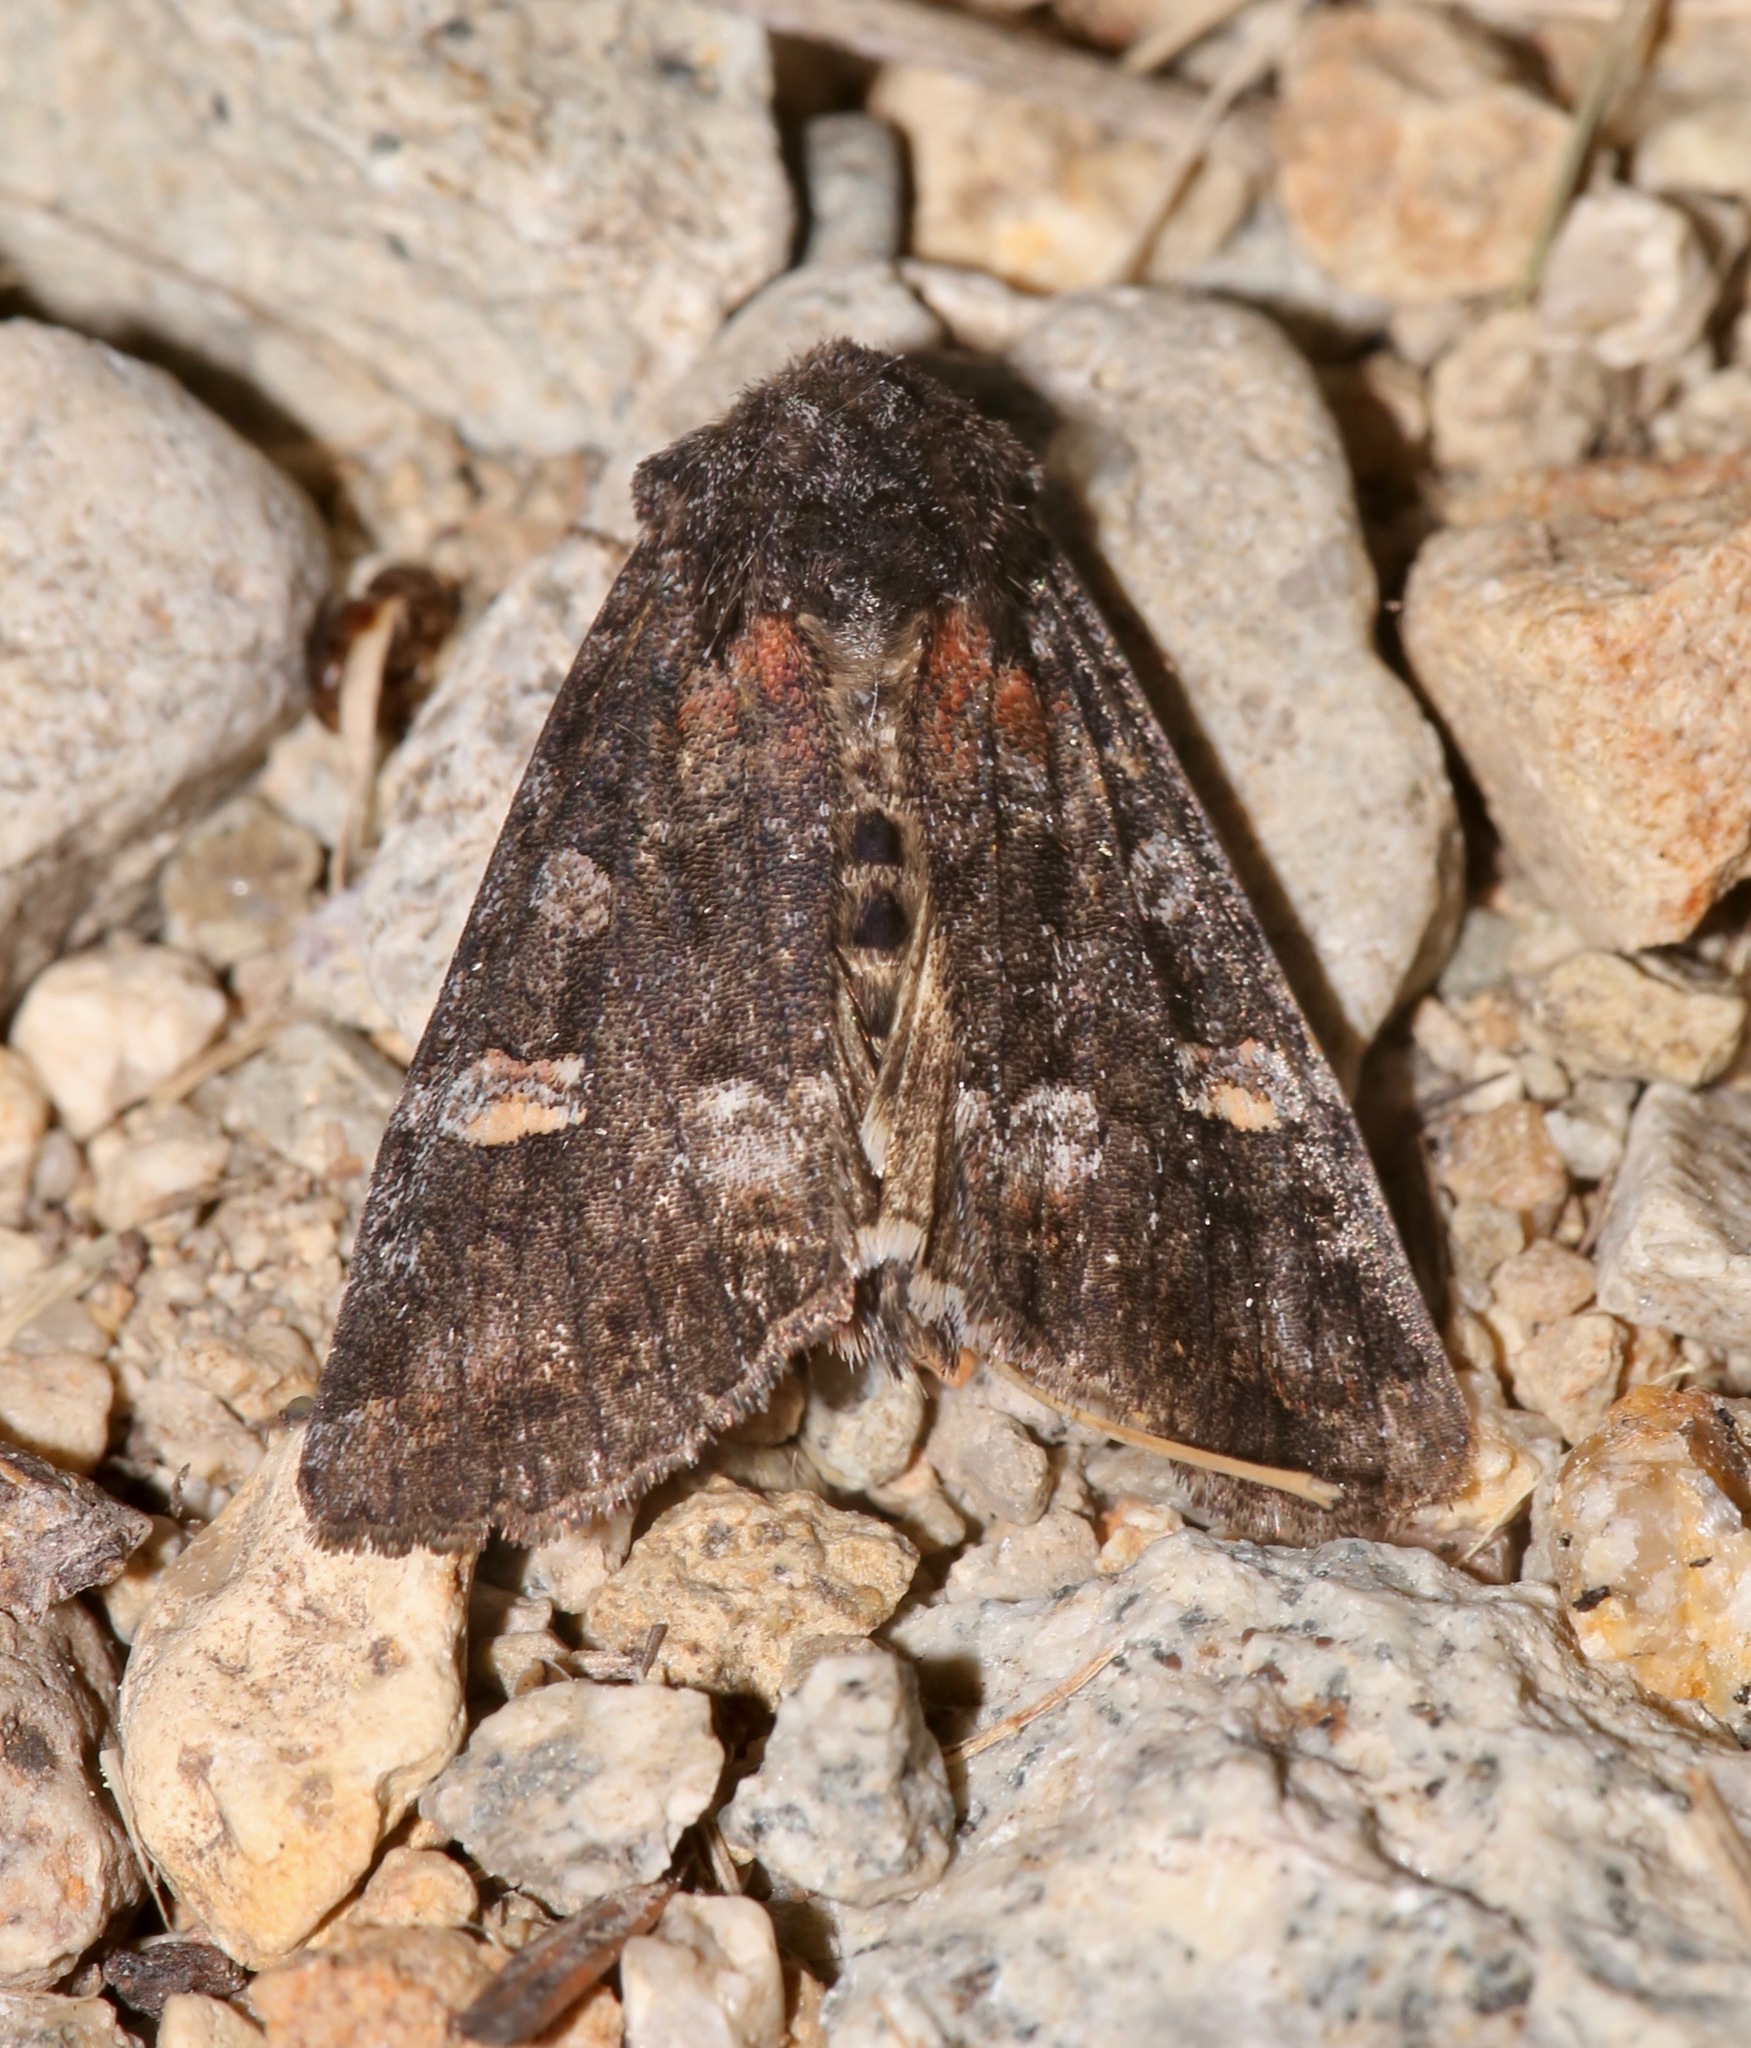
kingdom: Animalia
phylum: Arthropoda
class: Insecta
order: Lepidoptera
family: Noctuidae
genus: Spiramater
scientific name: Spiramater lutra
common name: Otter spiramater moth
